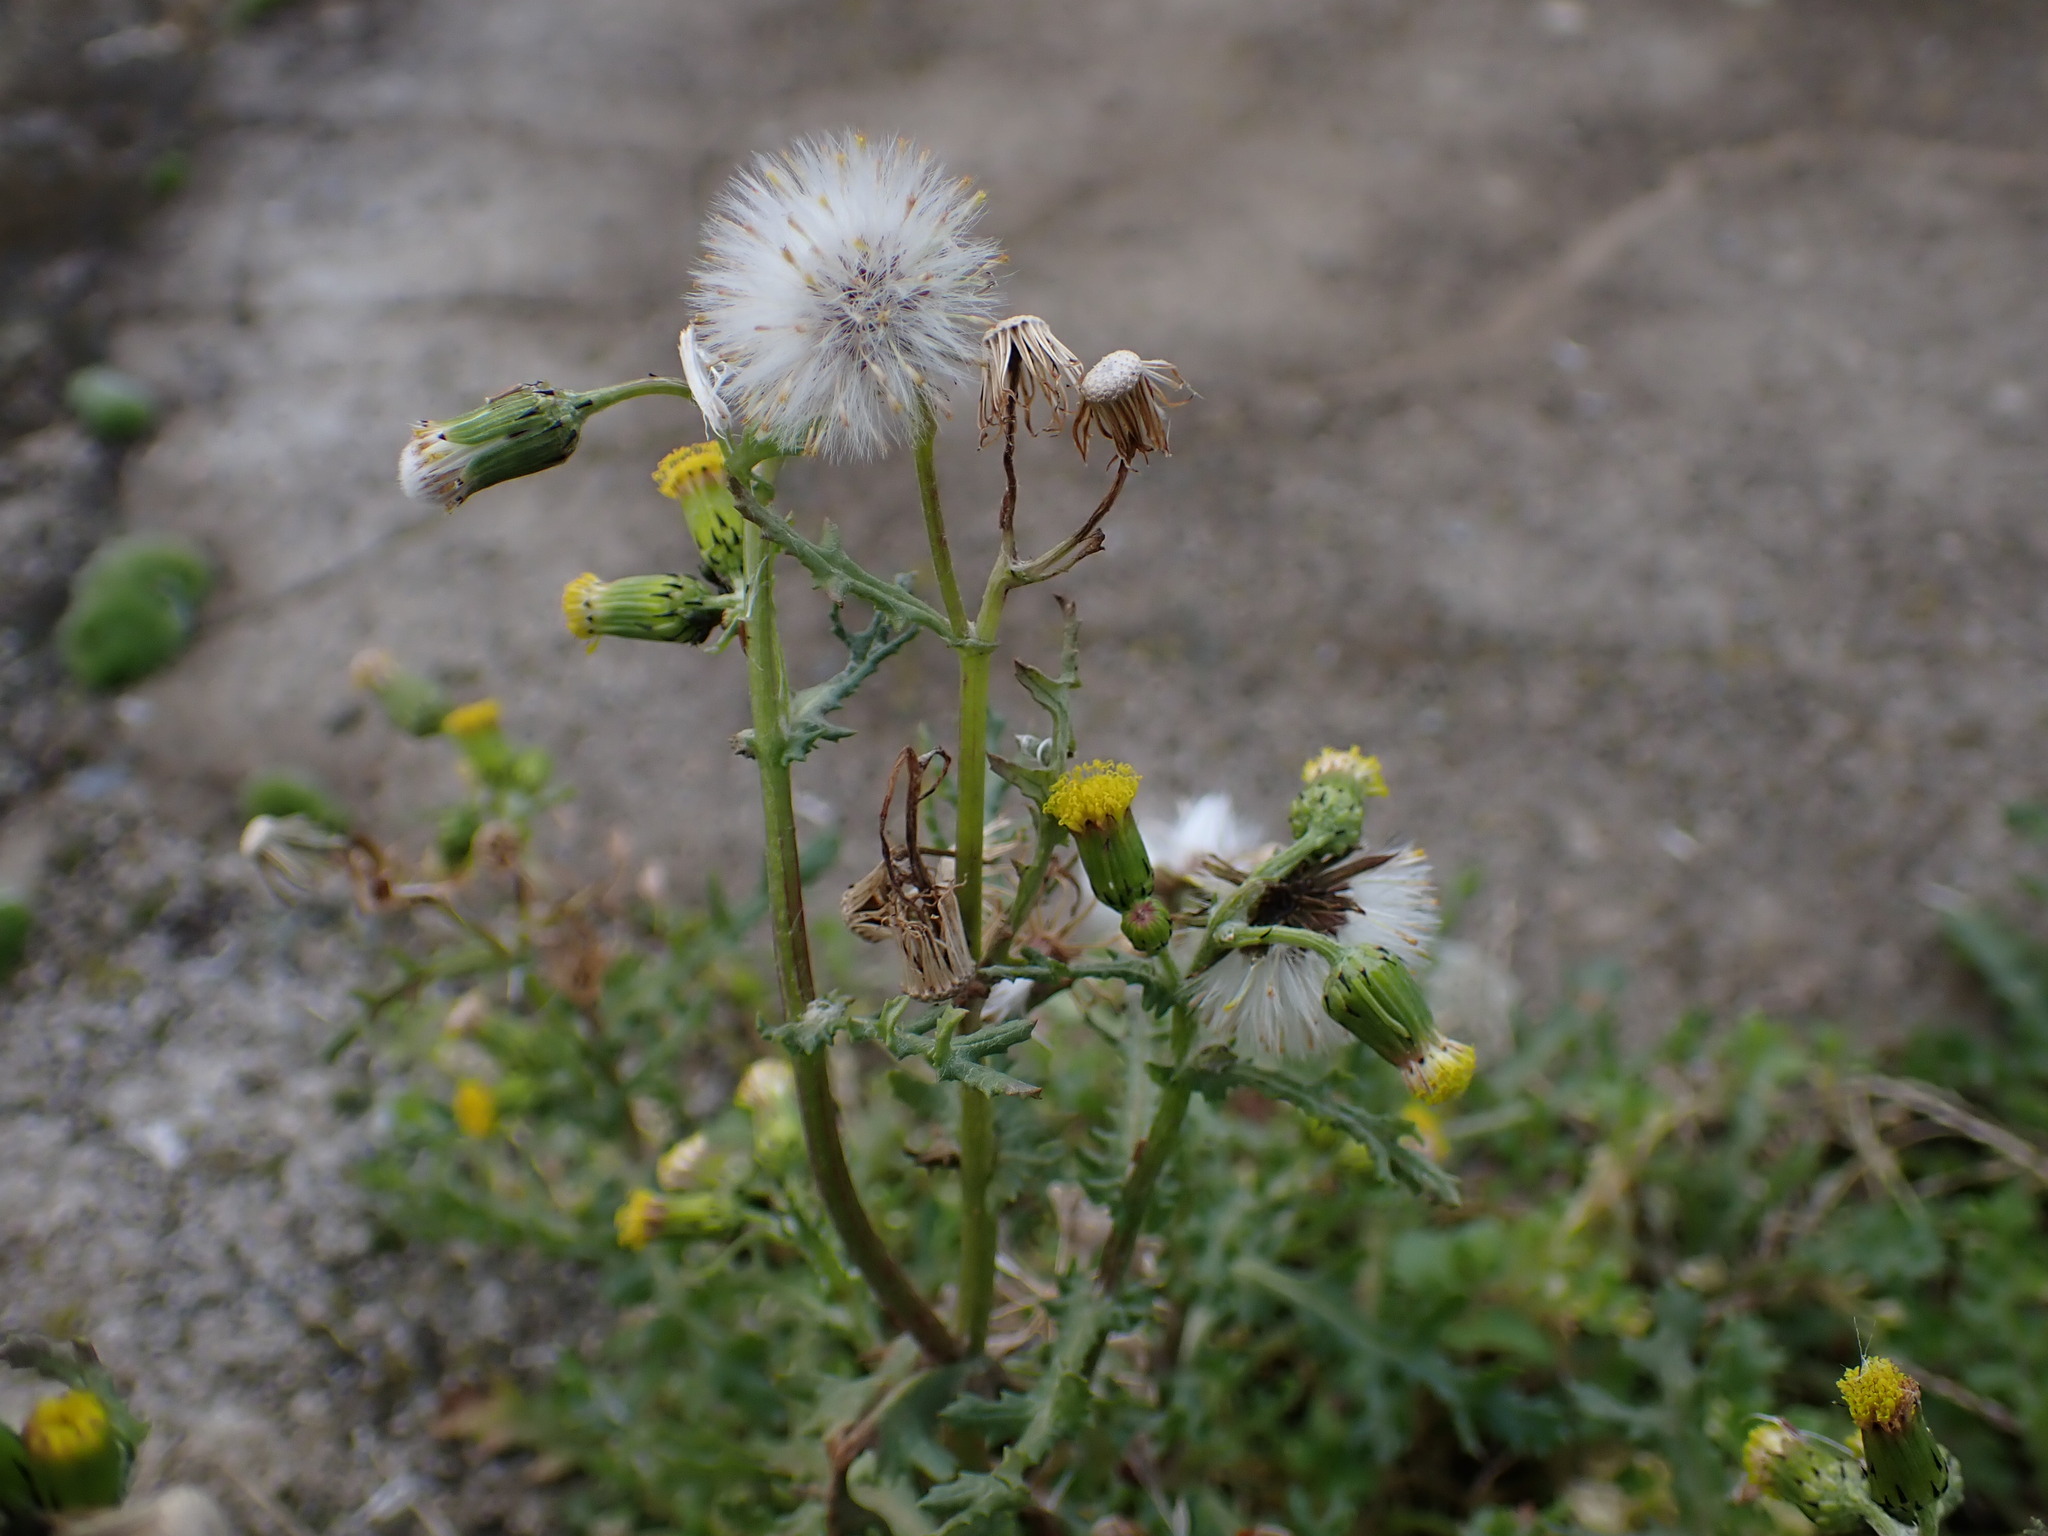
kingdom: Plantae
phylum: Tracheophyta
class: Magnoliopsida
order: Asterales
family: Asteraceae
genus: Senecio
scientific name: Senecio vulgaris
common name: Old-man-in-the-spring
